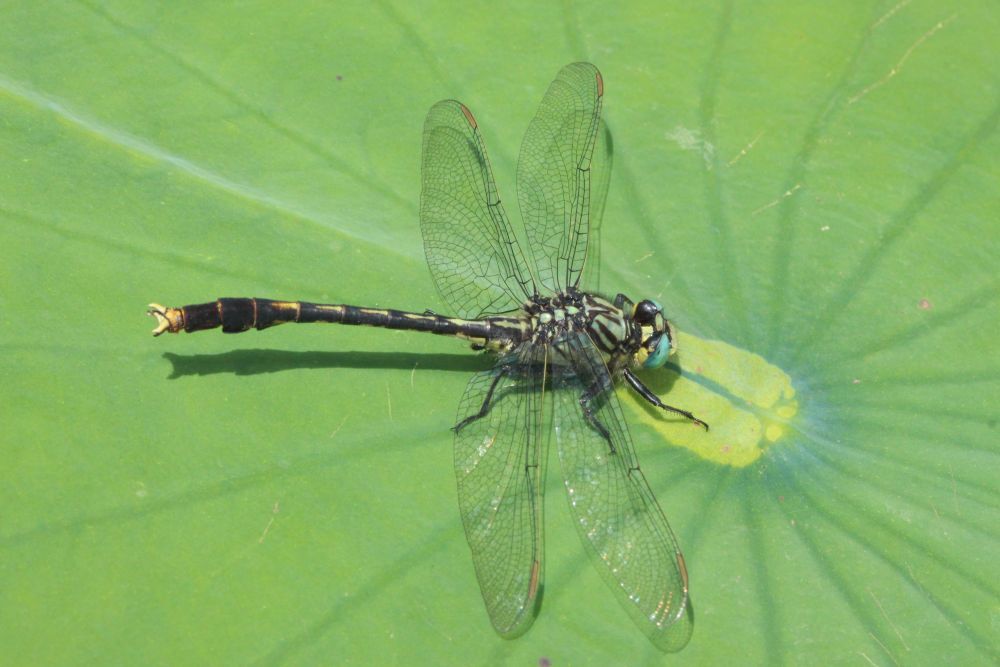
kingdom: Animalia
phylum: Arthropoda
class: Insecta
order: Odonata
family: Gomphidae
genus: Arigomphus
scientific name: Arigomphus villosipes
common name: Unicorn clubtail
